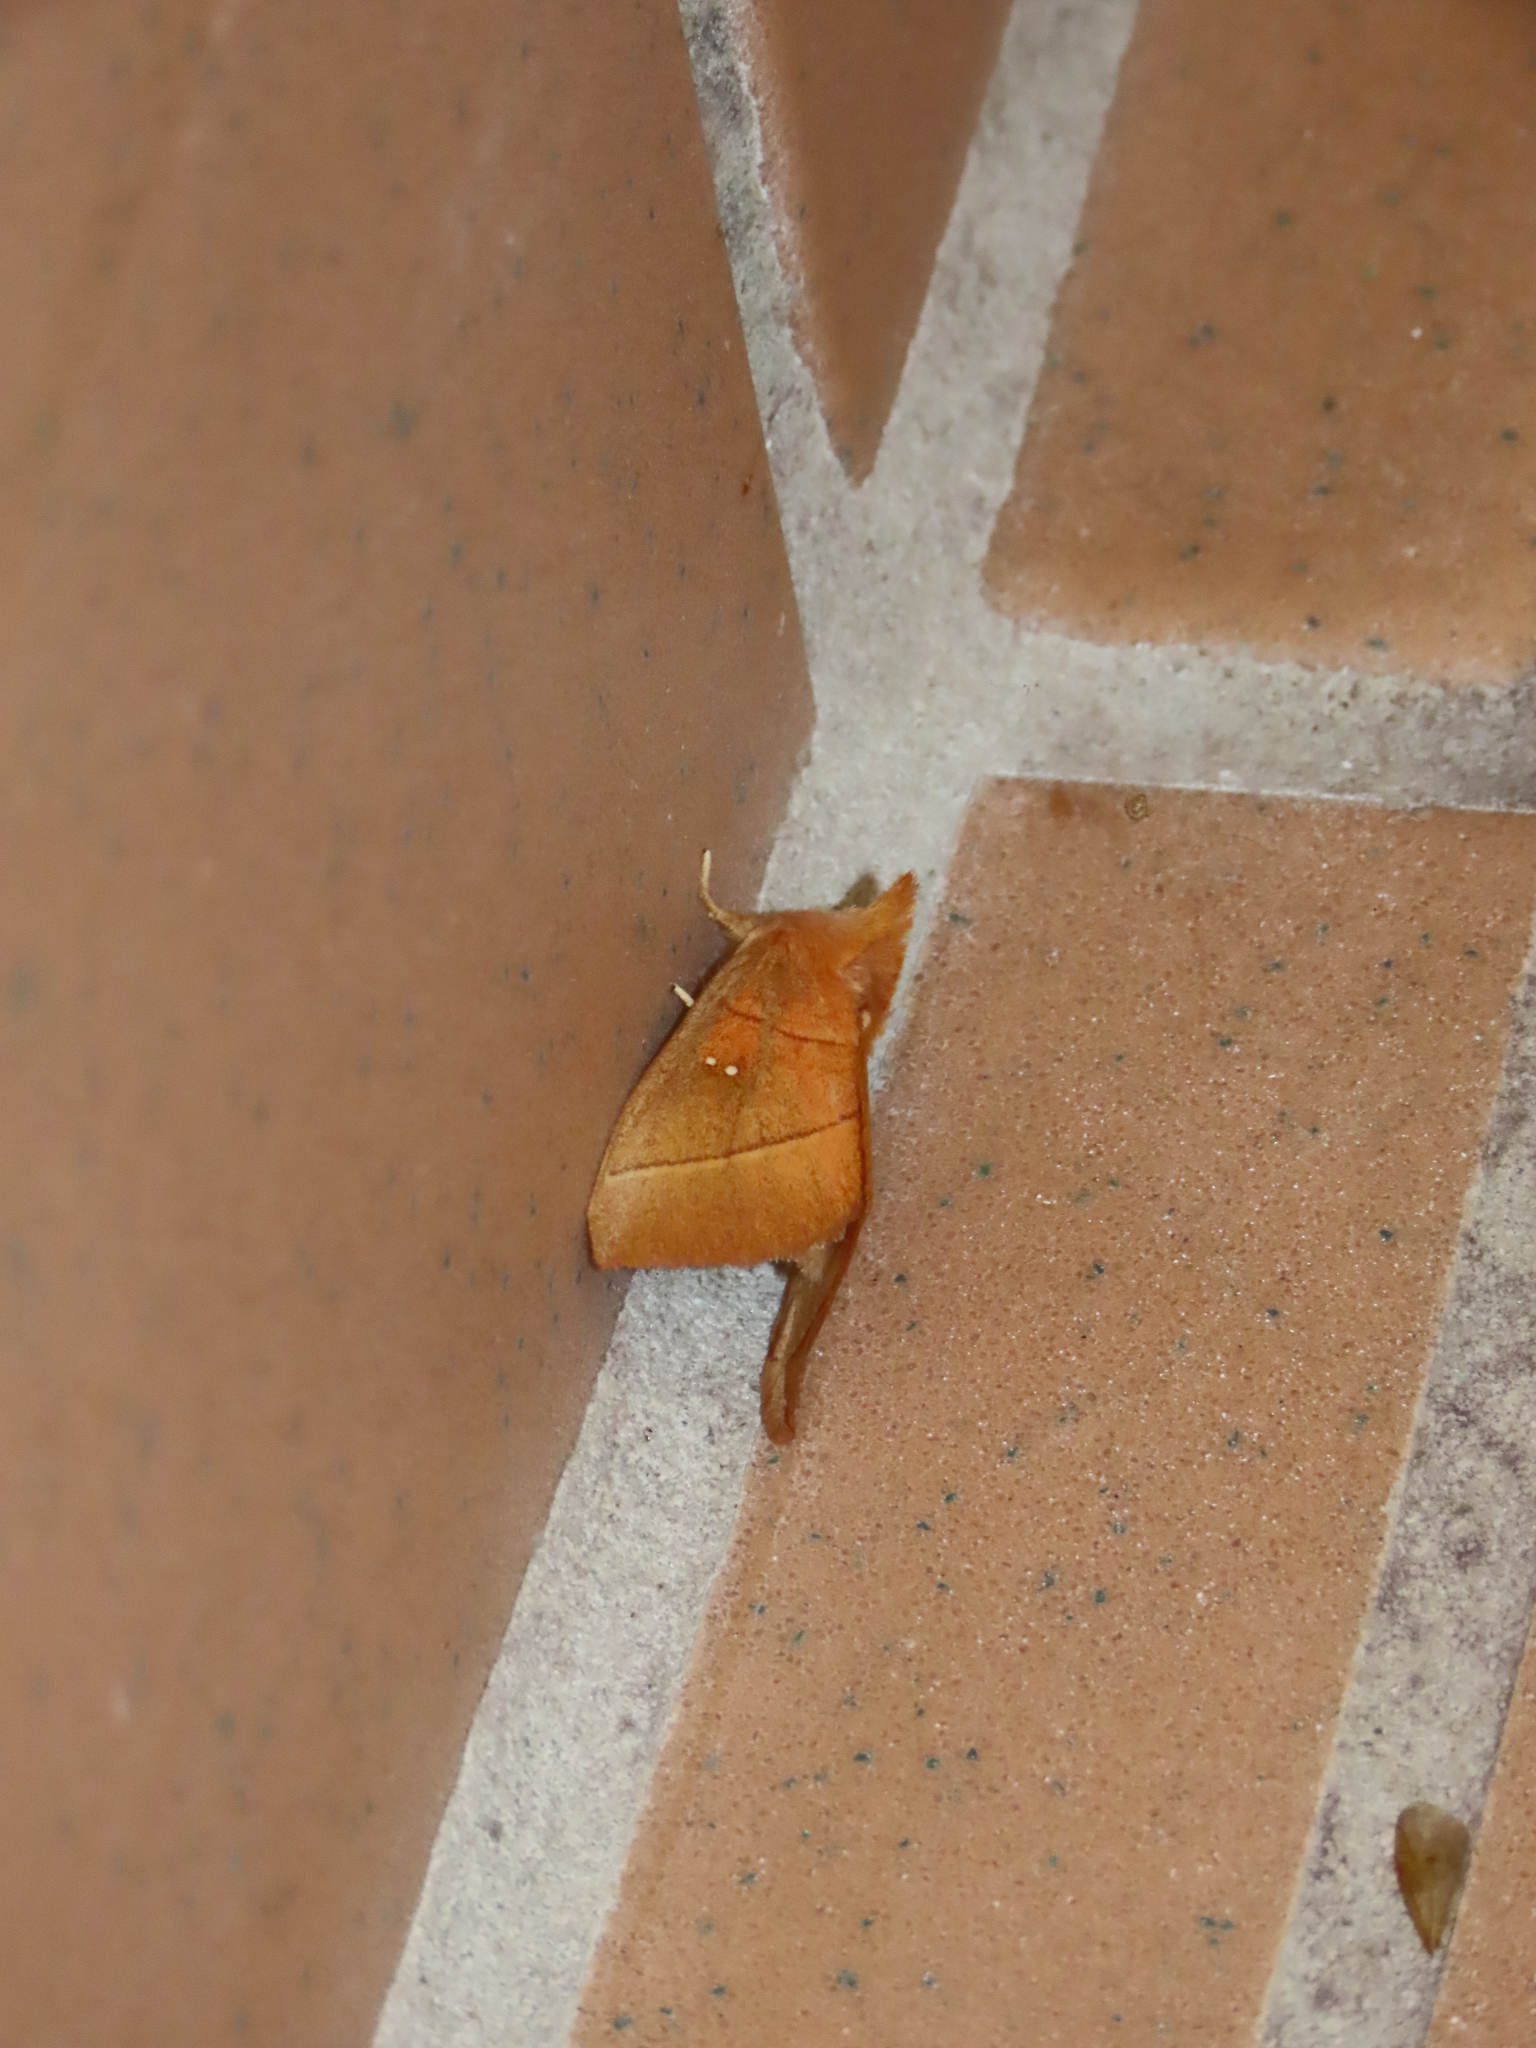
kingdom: Animalia
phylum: Arthropoda
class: Insecta
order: Lepidoptera
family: Notodontidae
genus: Nadata
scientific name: Nadata gibbosa
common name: White-dotted prominent
